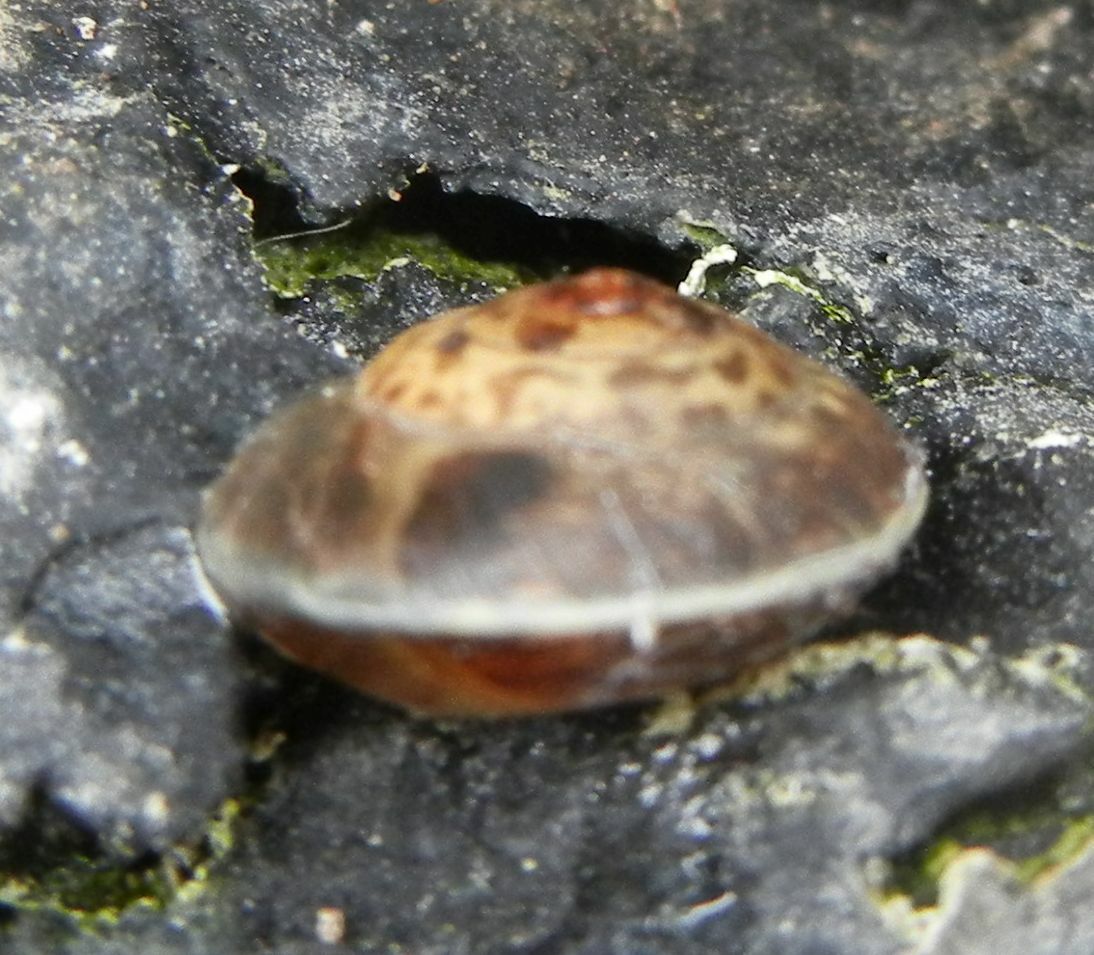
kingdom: Animalia
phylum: Mollusca
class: Gastropoda
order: Stylommatophora
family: Hygromiidae
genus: Hygromia
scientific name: Hygromia cinctella
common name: Girdled snail
